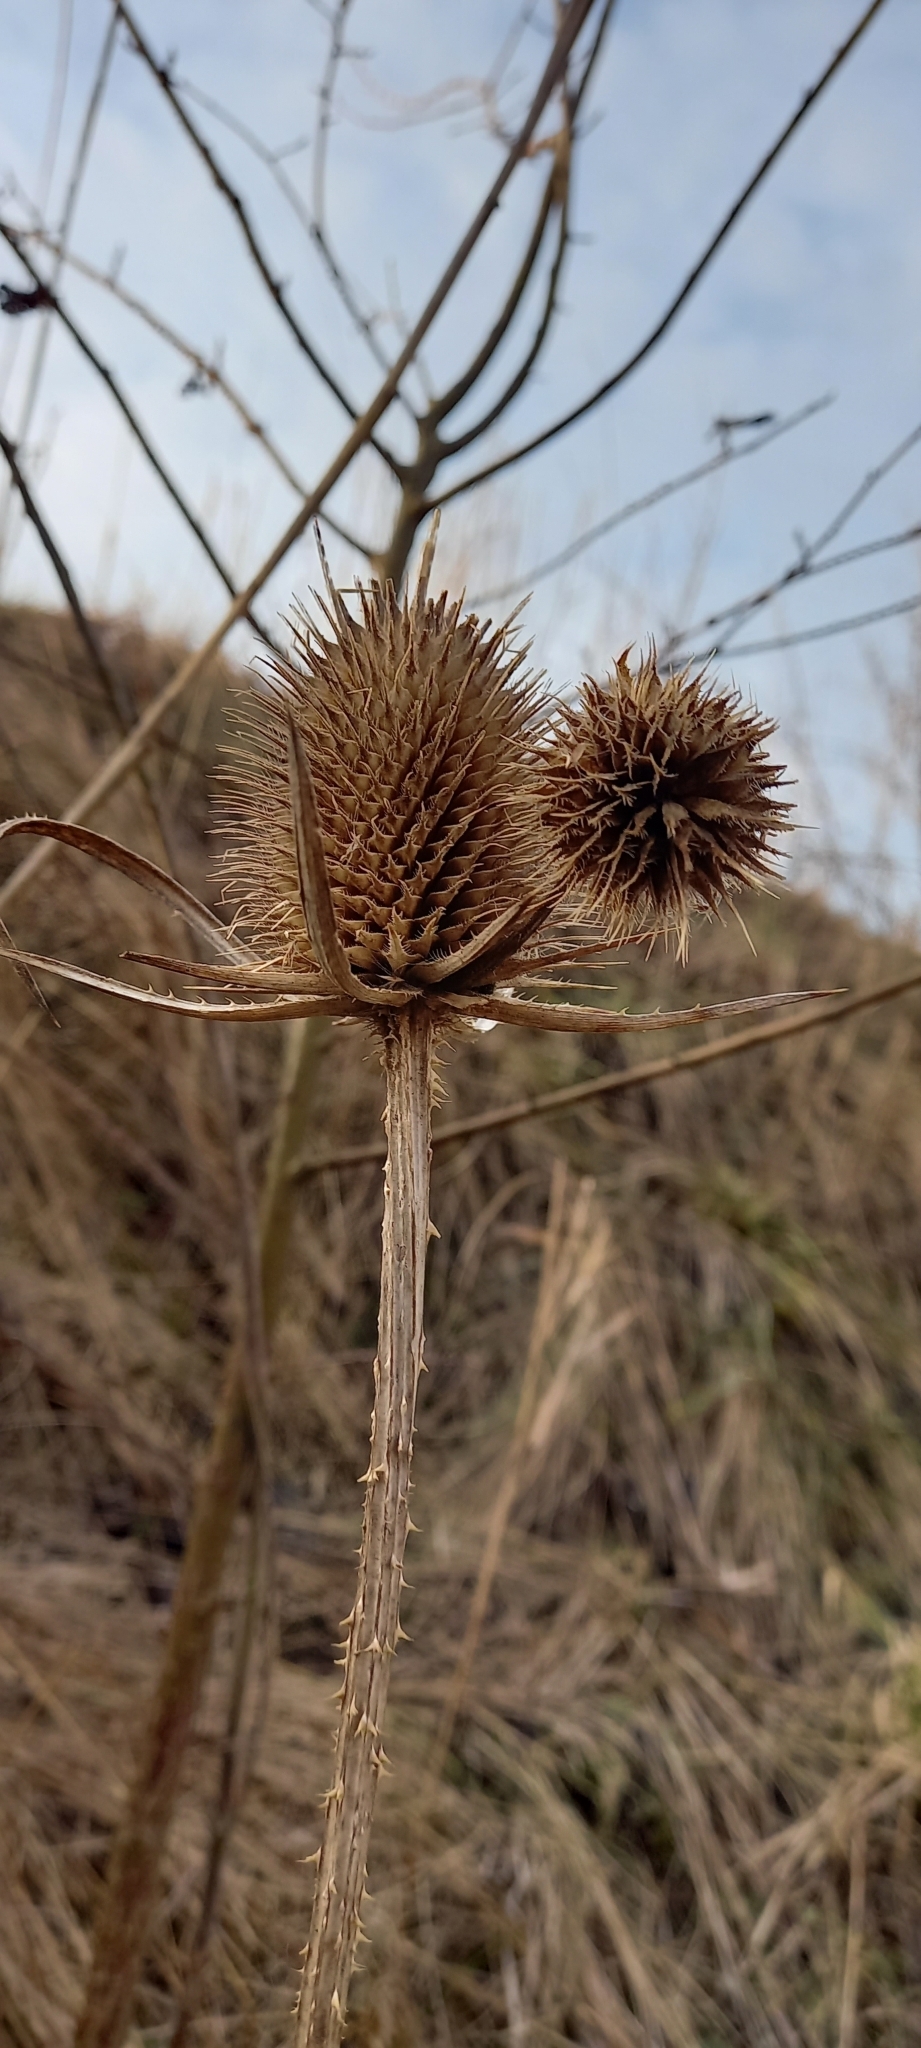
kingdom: Plantae
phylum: Tracheophyta
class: Magnoliopsida
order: Dipsacales
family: Caprifoliaceae
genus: Dipsacus
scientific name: Dipsacus laciniatus
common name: Cut-leaved teasel
